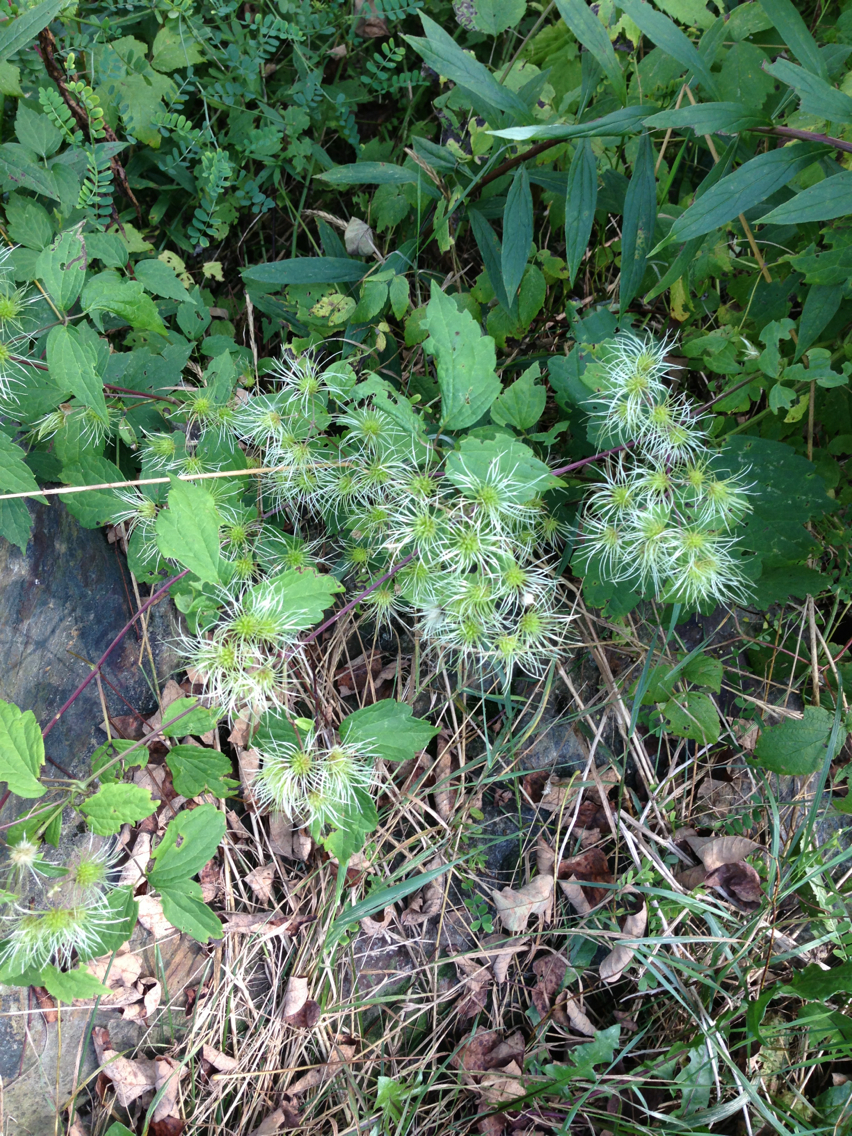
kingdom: Plantae
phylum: Tracheophyta
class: Magnoliopsida
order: Ranunculales
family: Ranunculaceae
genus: Clematis
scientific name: Clematis virginiana
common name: Virgin's-bower
